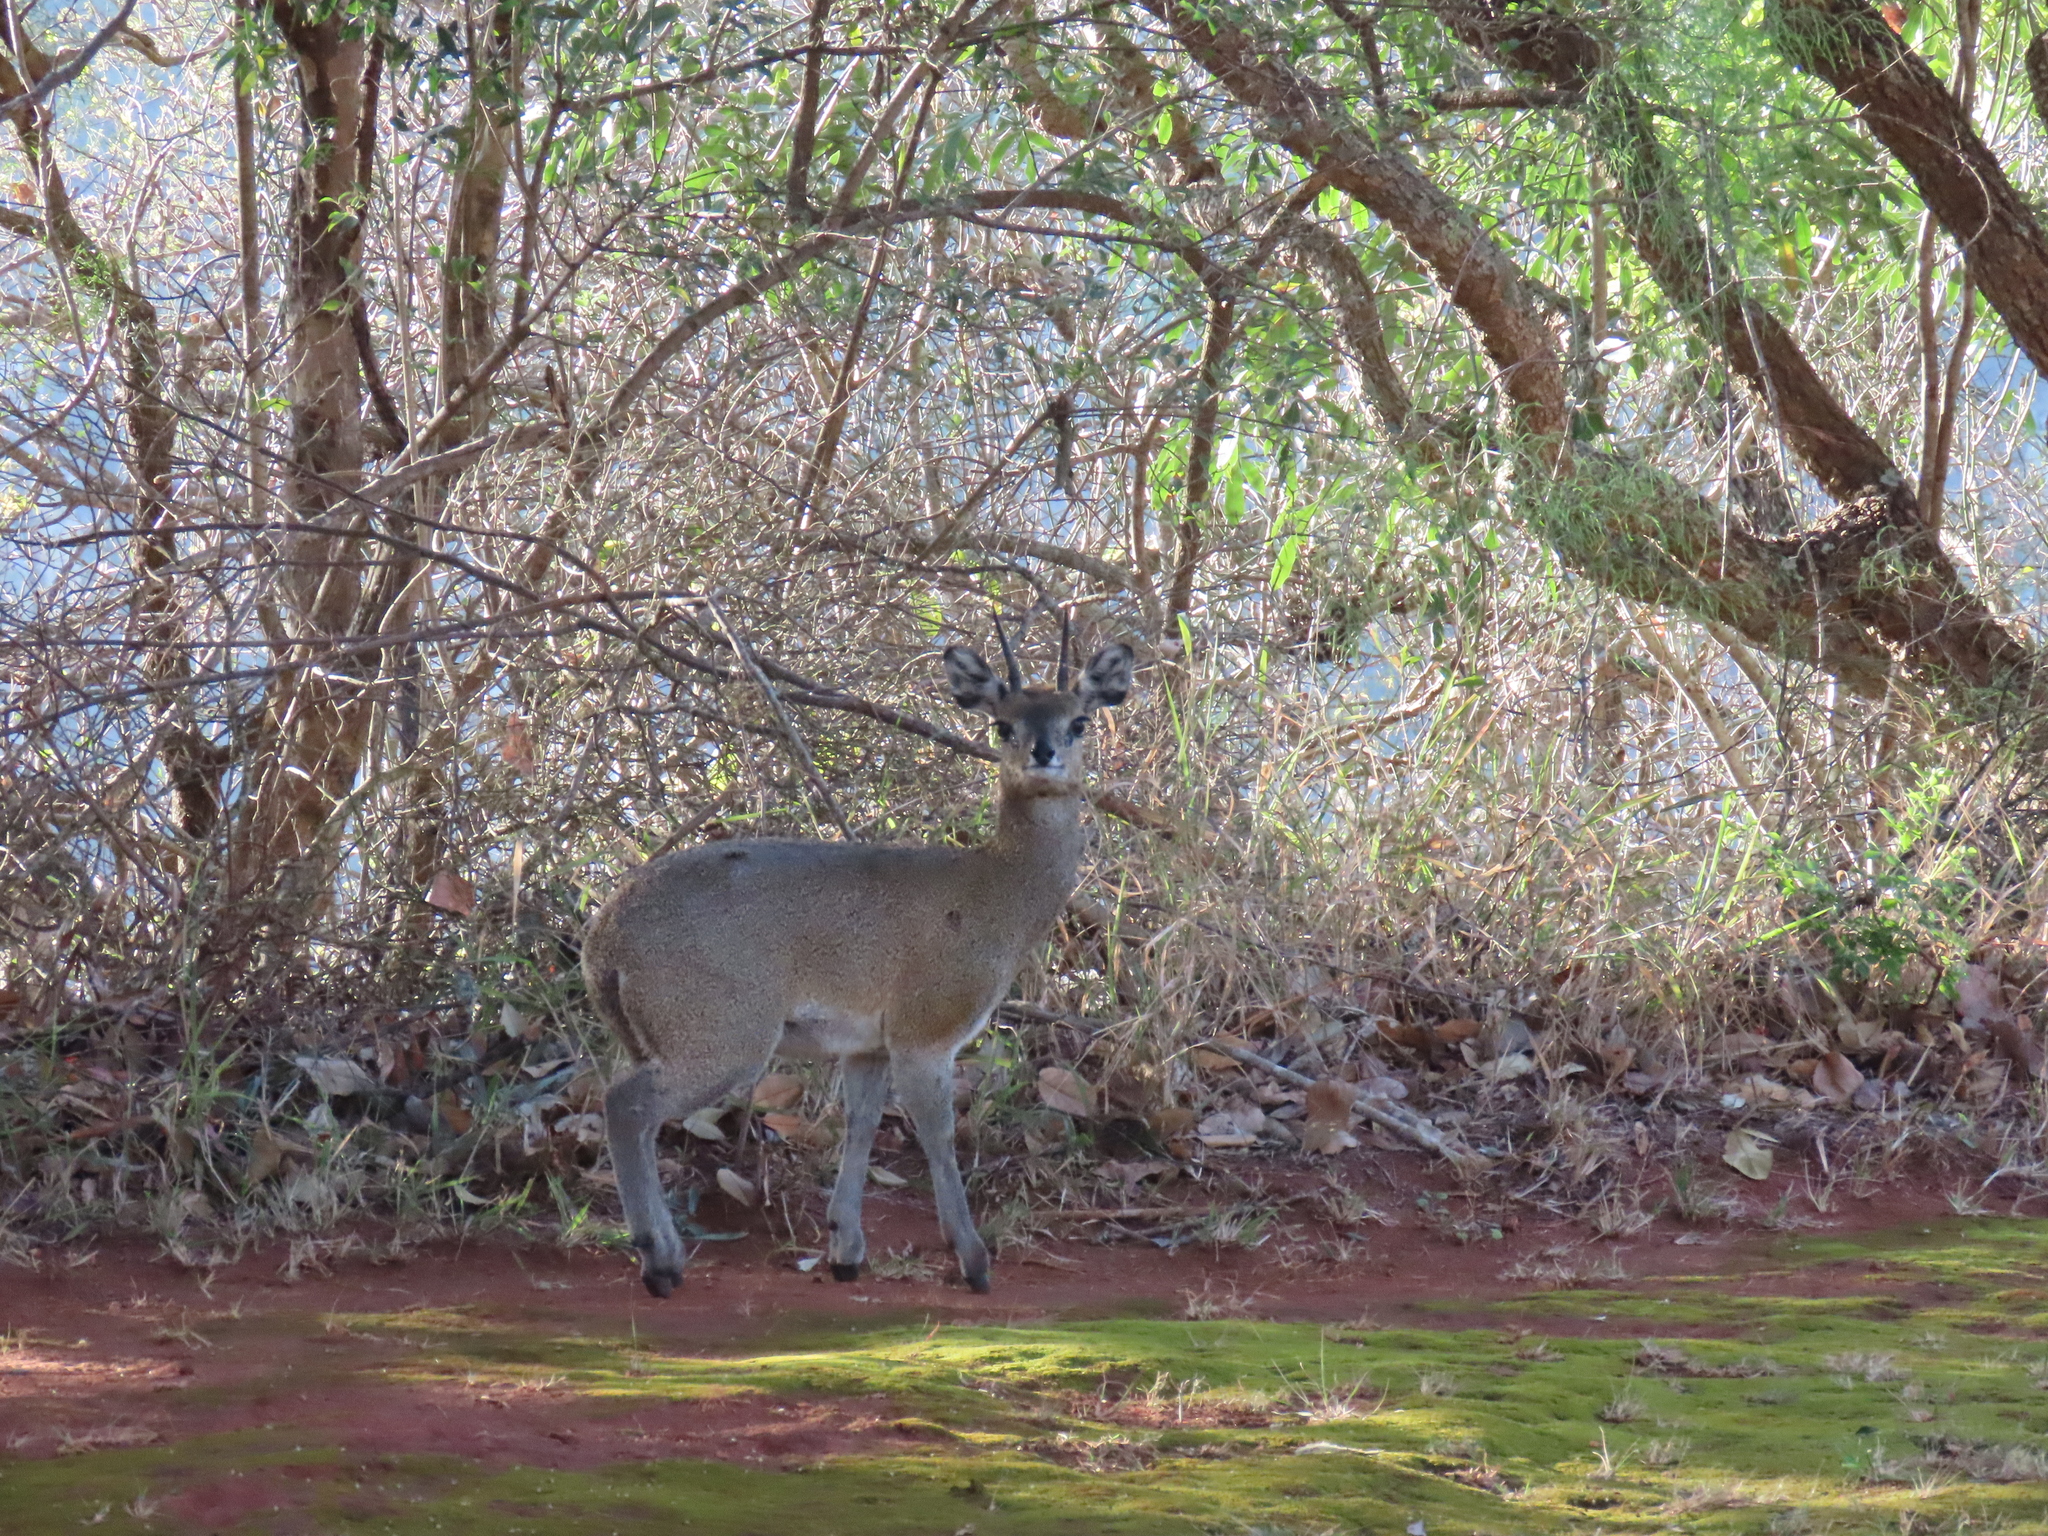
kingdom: Animalia
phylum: Chordata
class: Mammalia
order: Artiodactyla
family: Bovidae
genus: Oreotragus
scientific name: Oreotragus oreotragus
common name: Klipspringer
